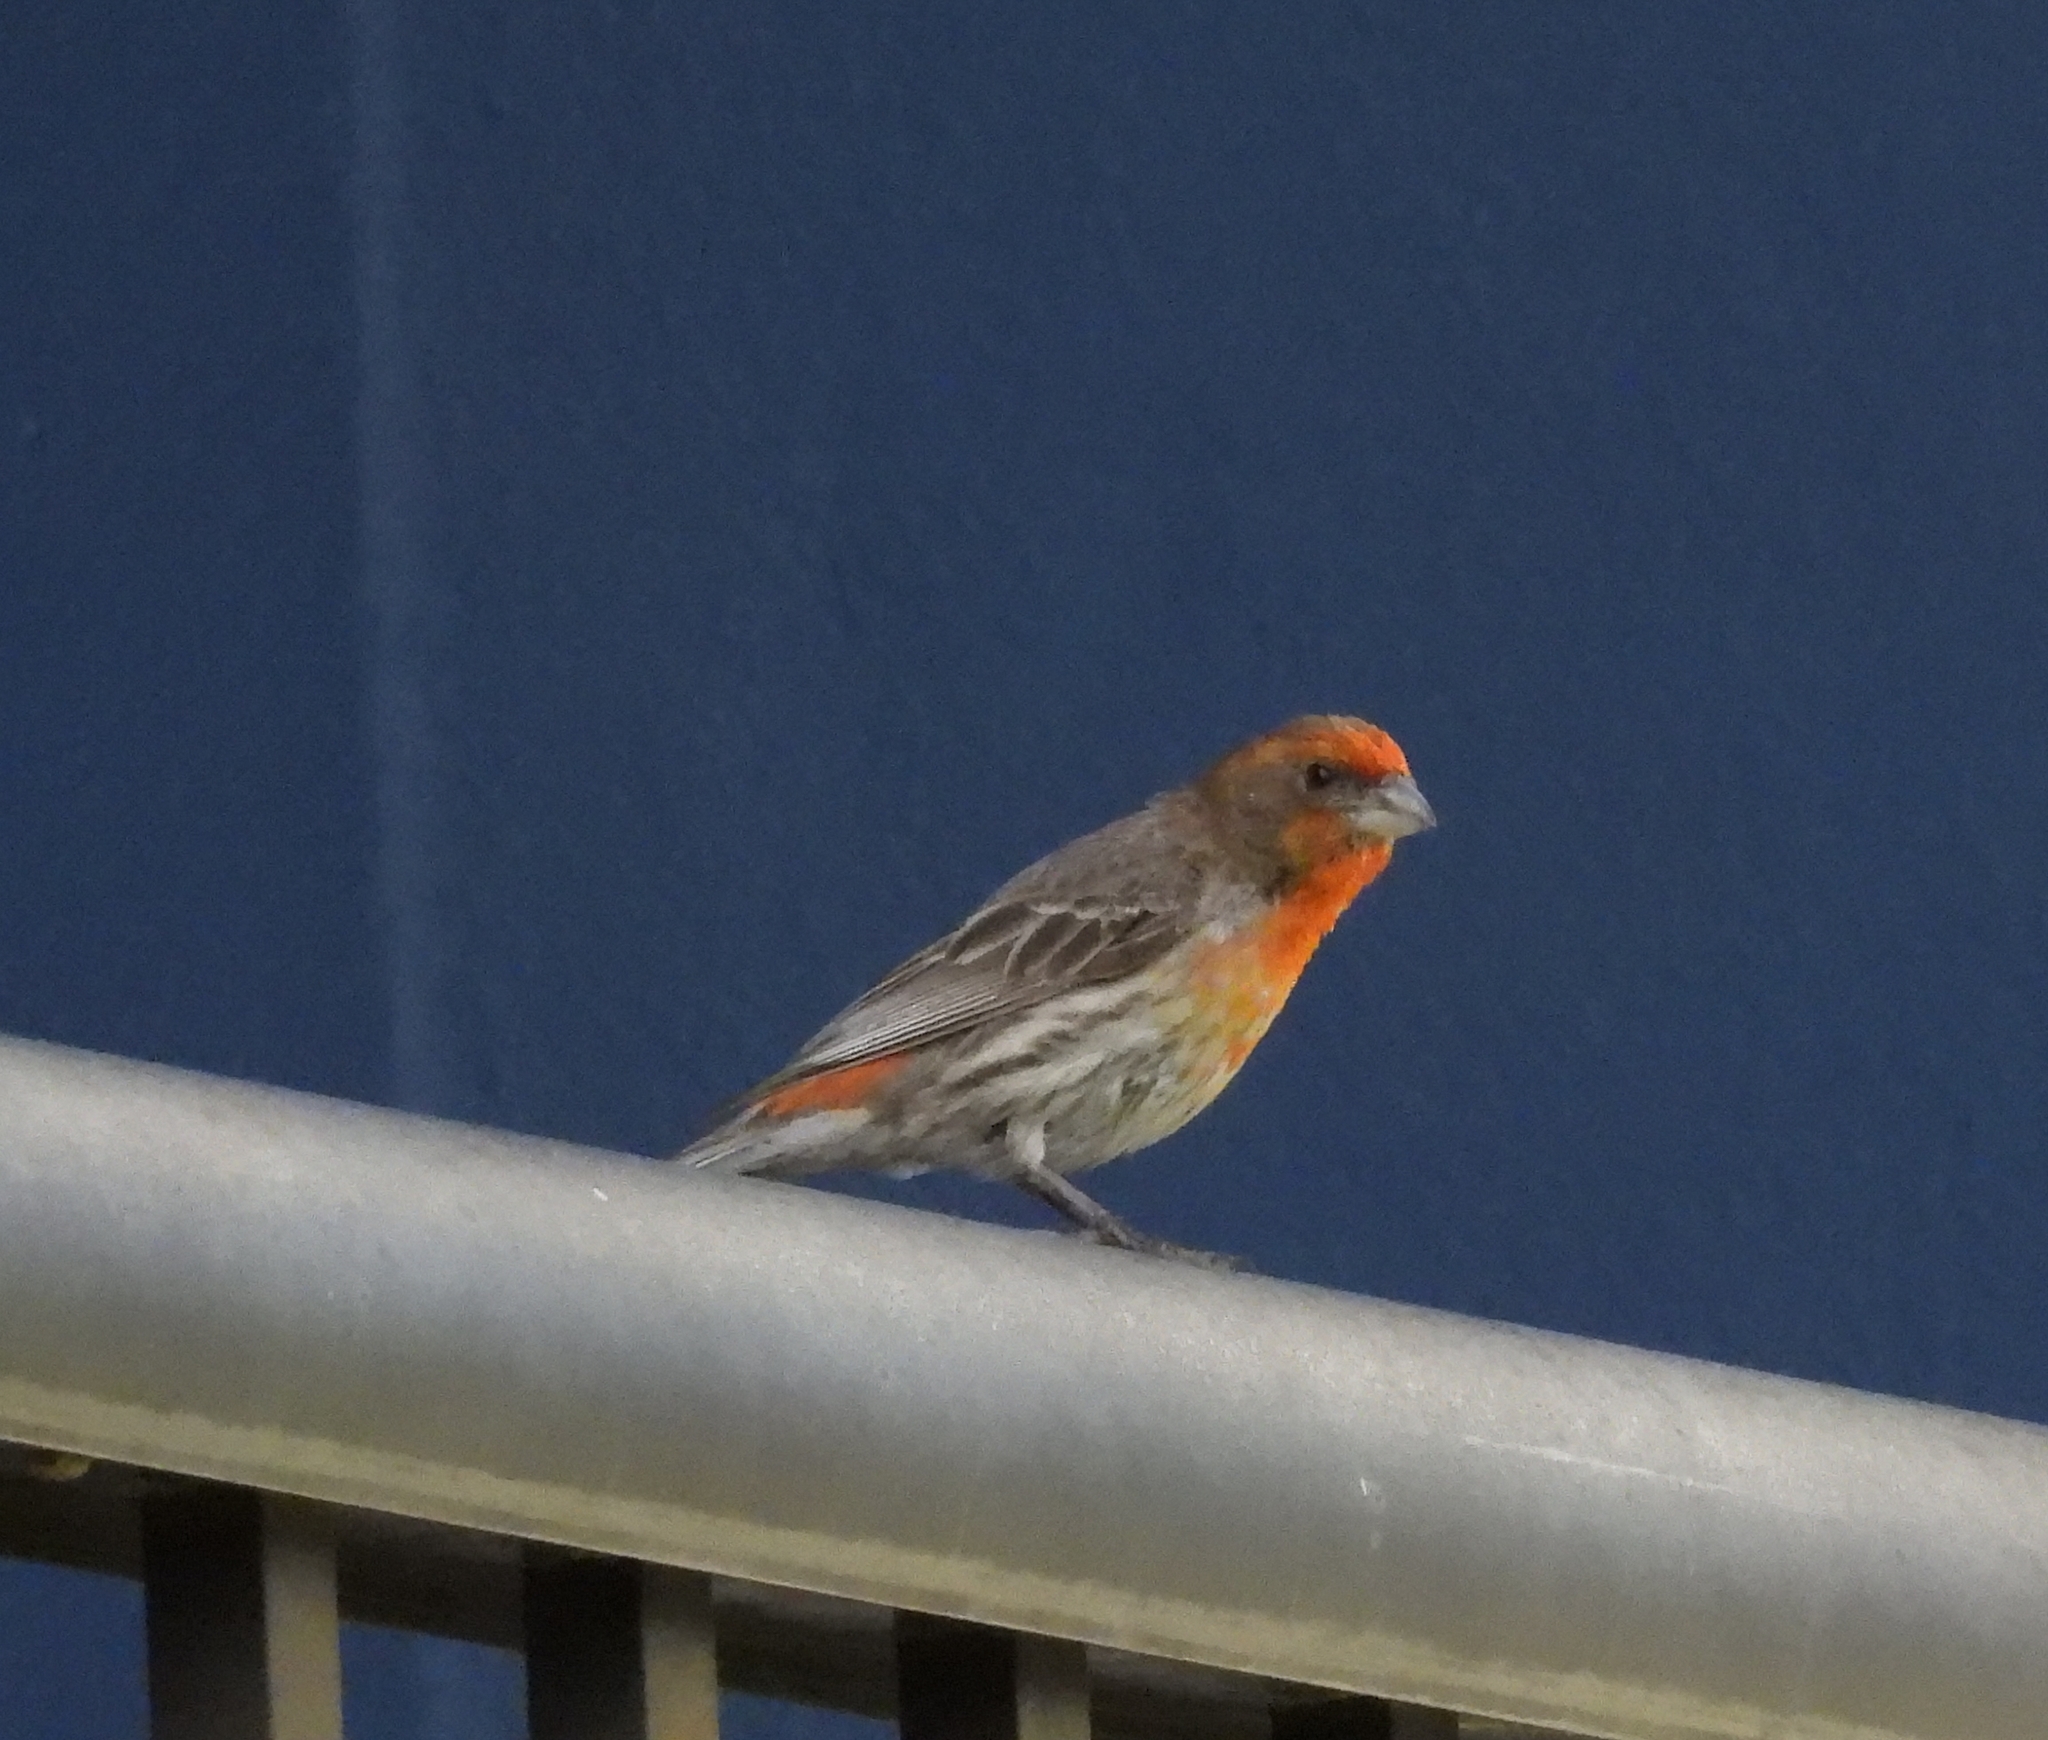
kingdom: Animalia
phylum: Chordata
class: Aves
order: Passeriformes
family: Fringillidae
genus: Haemorhous
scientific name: Haemorhous mexicanus
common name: House finch
